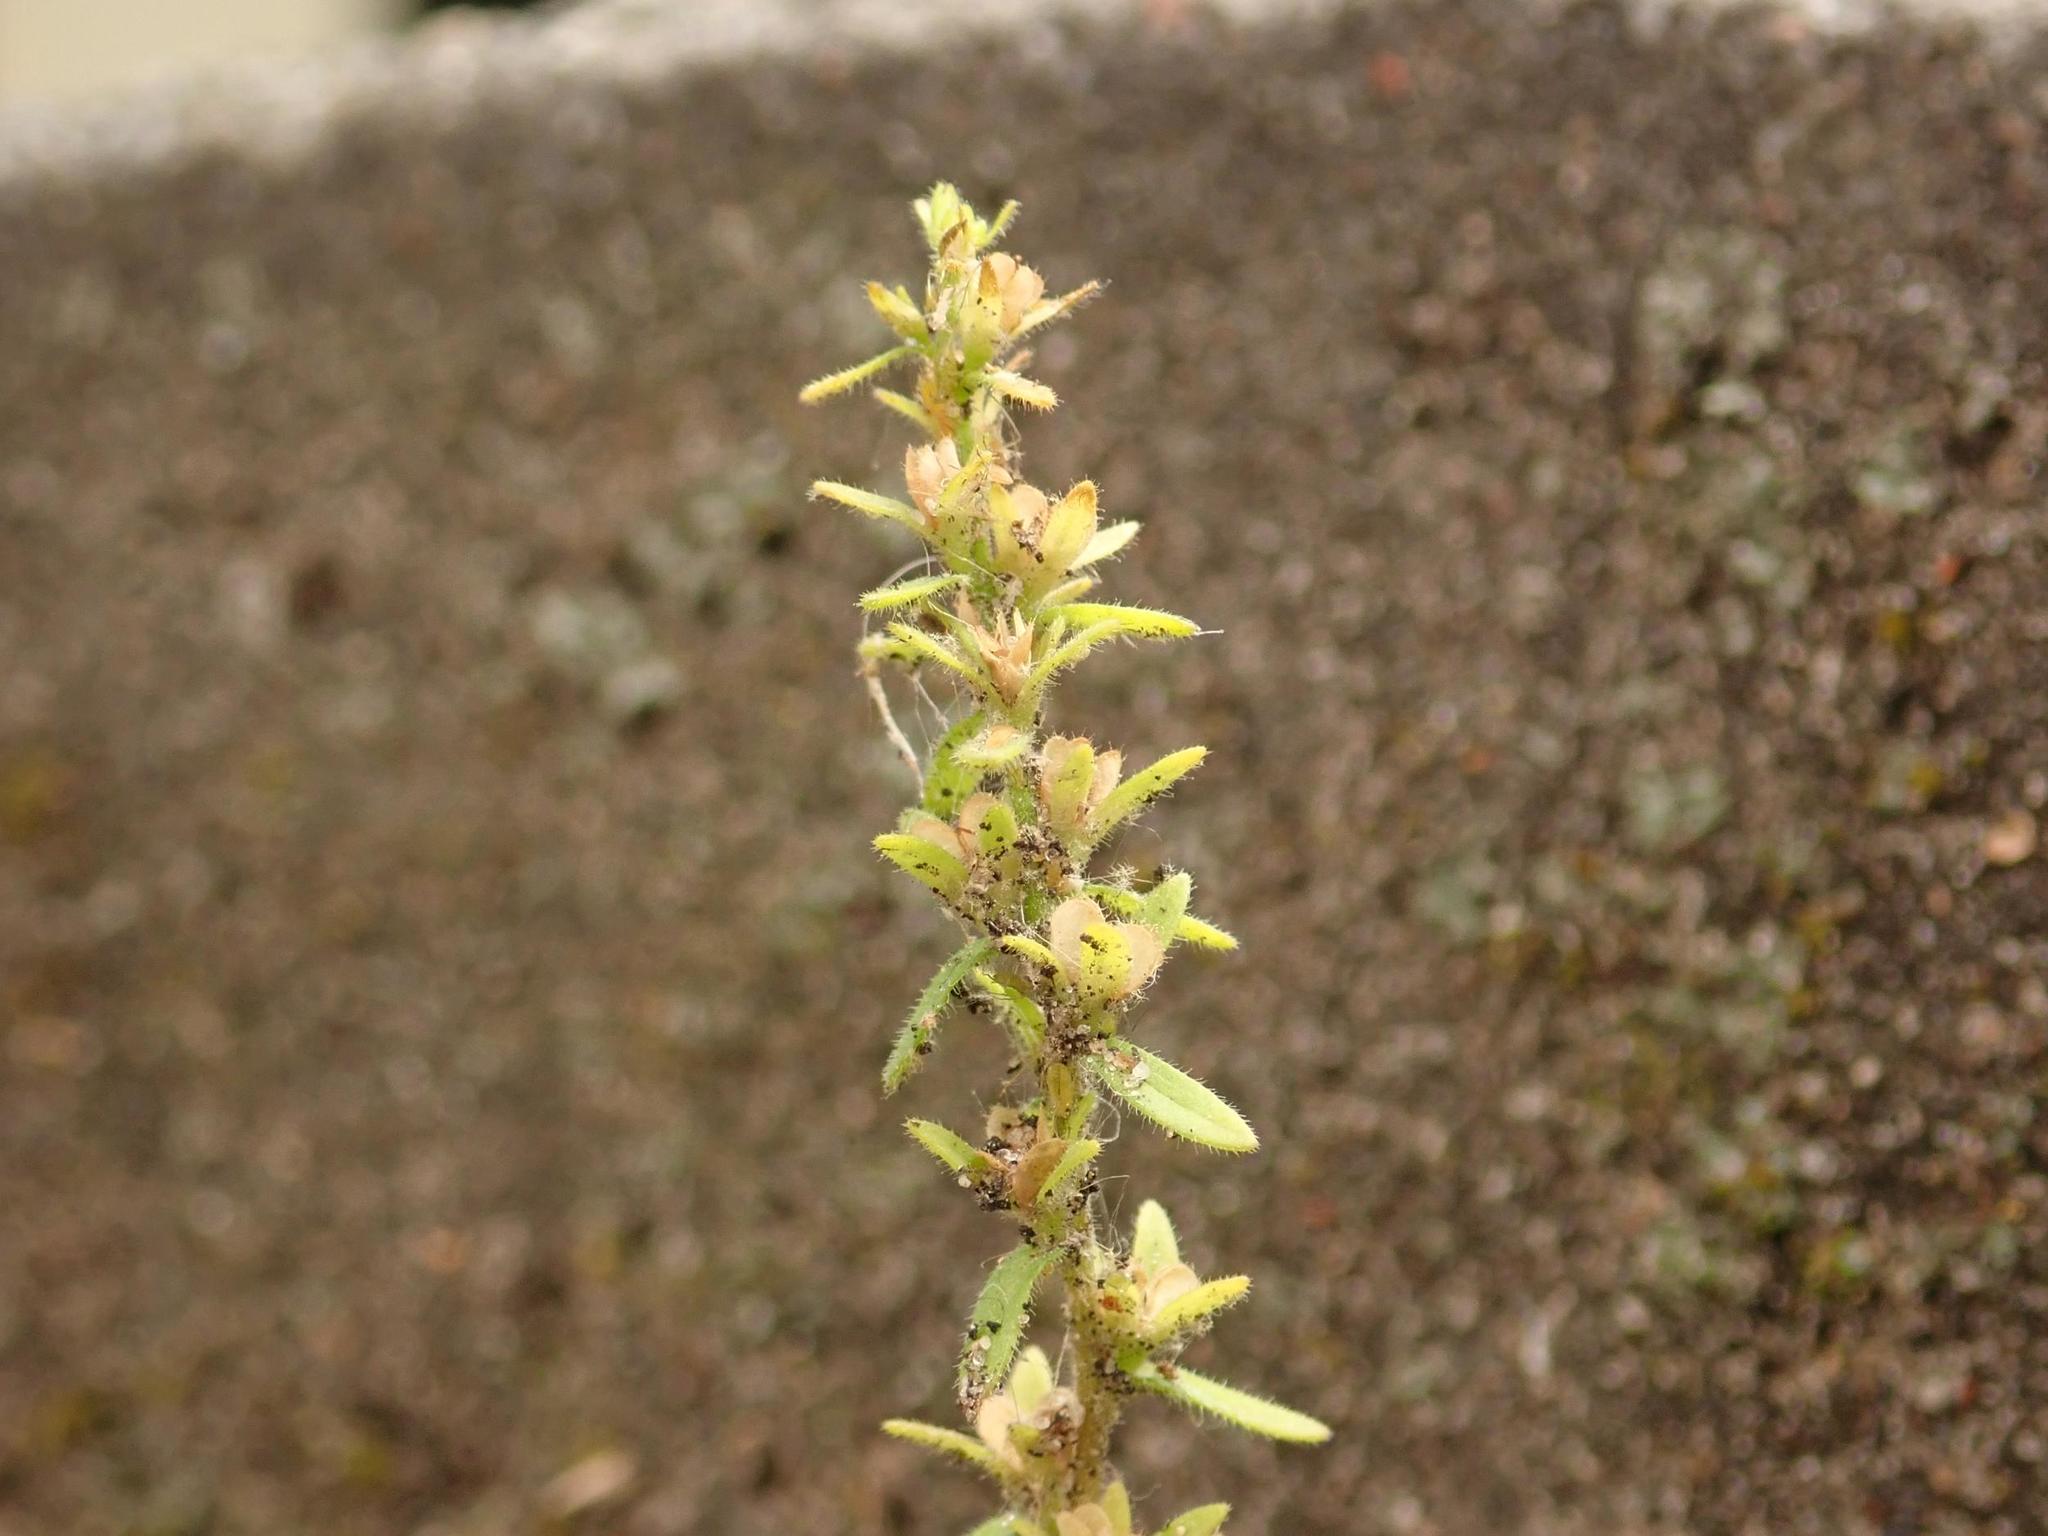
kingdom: Plantae
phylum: Tracheophyta
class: Magnoliopsida
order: Lamiales
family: Plantaginaceae
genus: Veronica
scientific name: Veronica arvensis
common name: Corn speedwell
